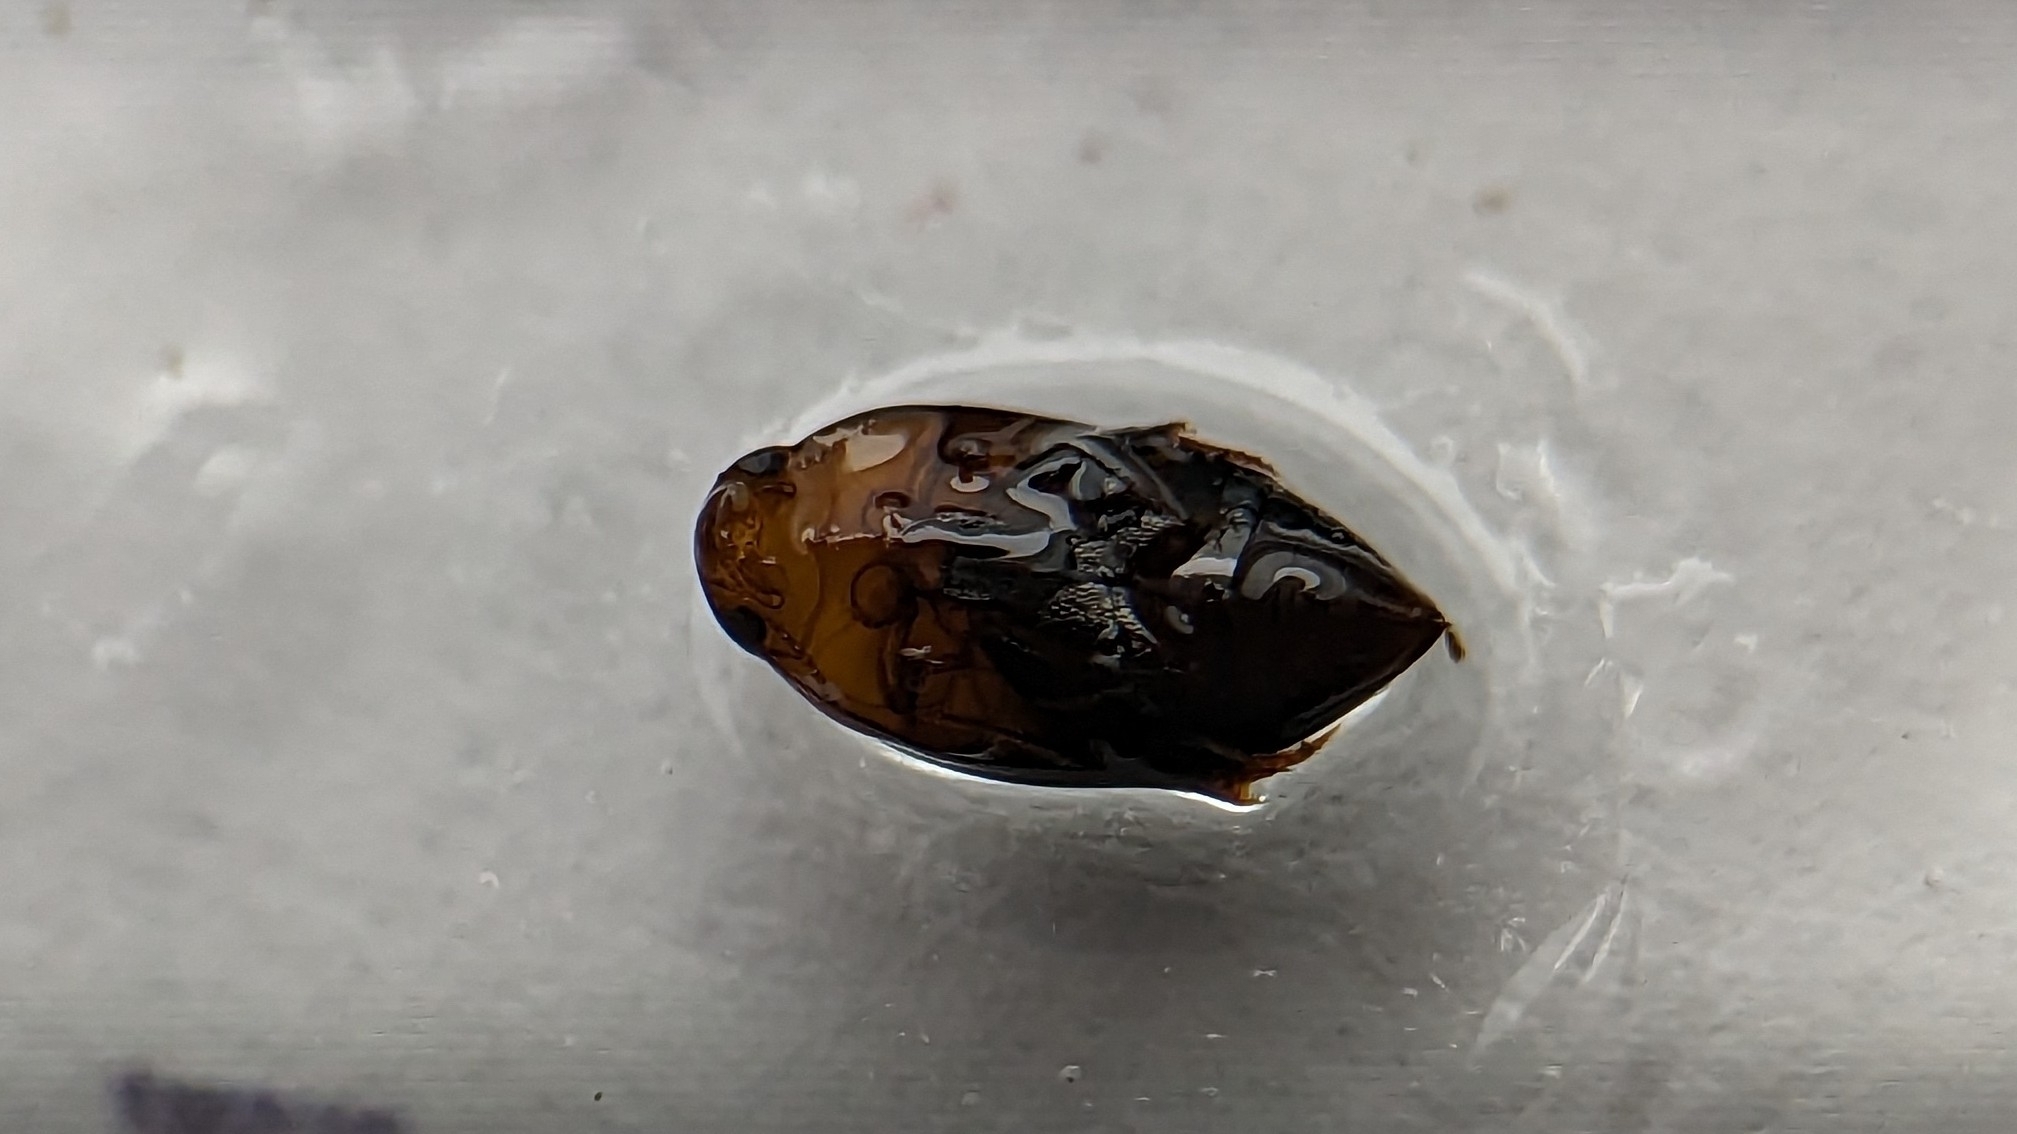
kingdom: Animalia
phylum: Arthropoda
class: Insecta
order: Coleoptera
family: Noteridae
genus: Hydrocanthus
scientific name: Hydrocanthus
